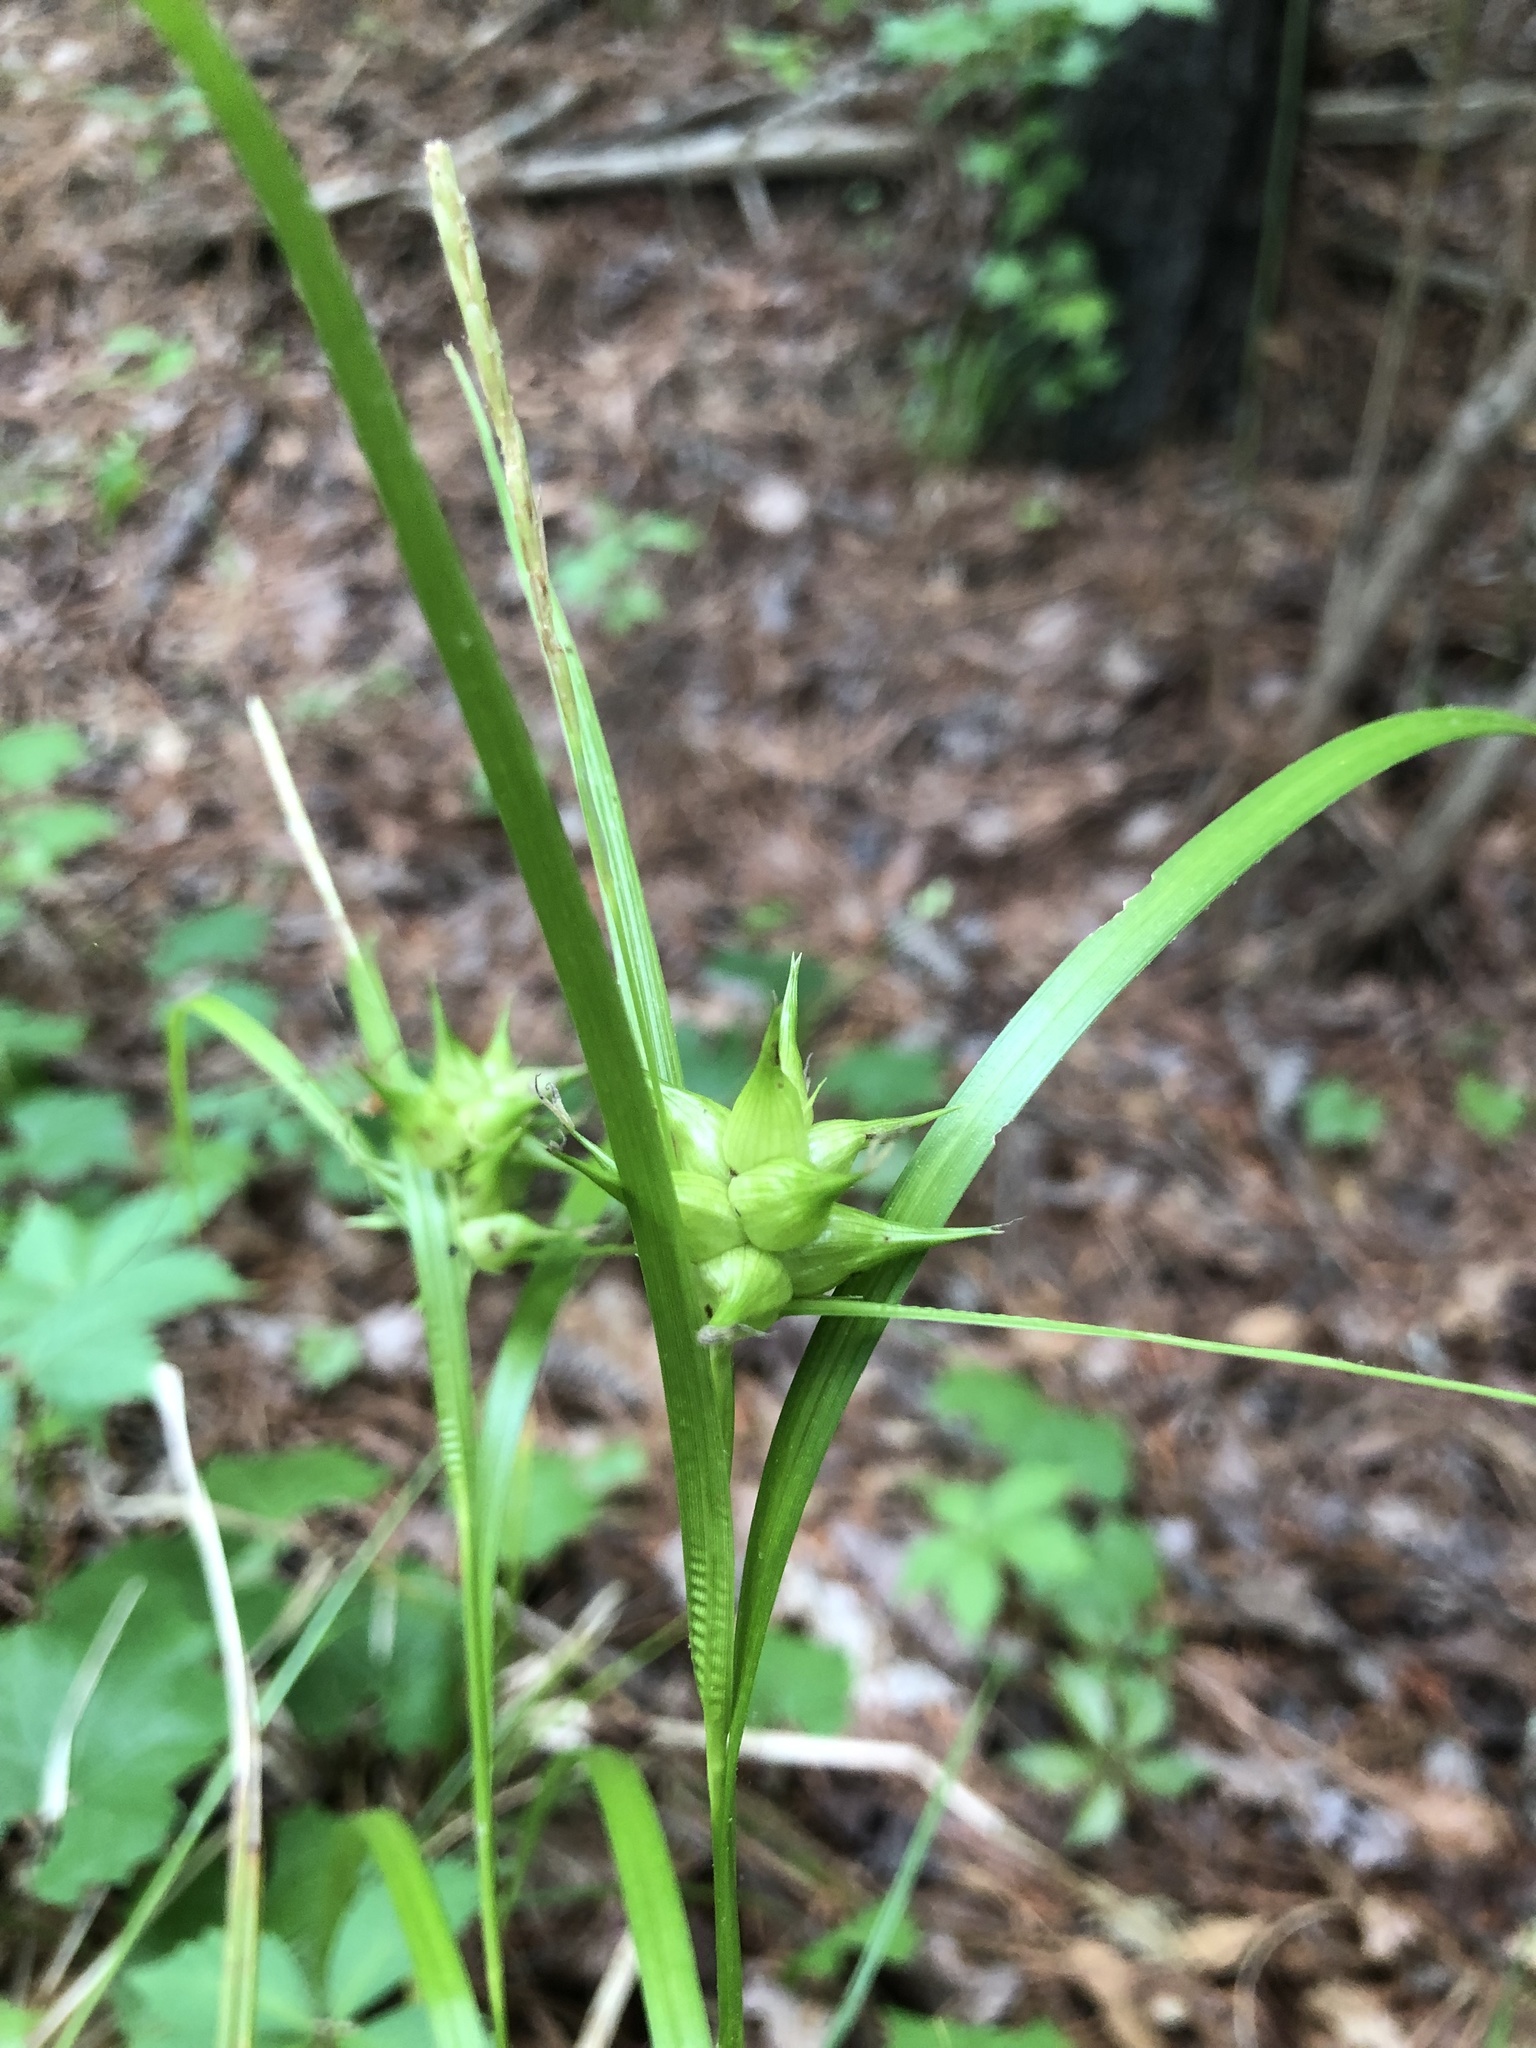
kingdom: Plantae
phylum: Tracheophyta
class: Liliopsida
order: Poales
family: Cyperaceae
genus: Carex
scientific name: Carex intumescens
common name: Greater bladder sedge
